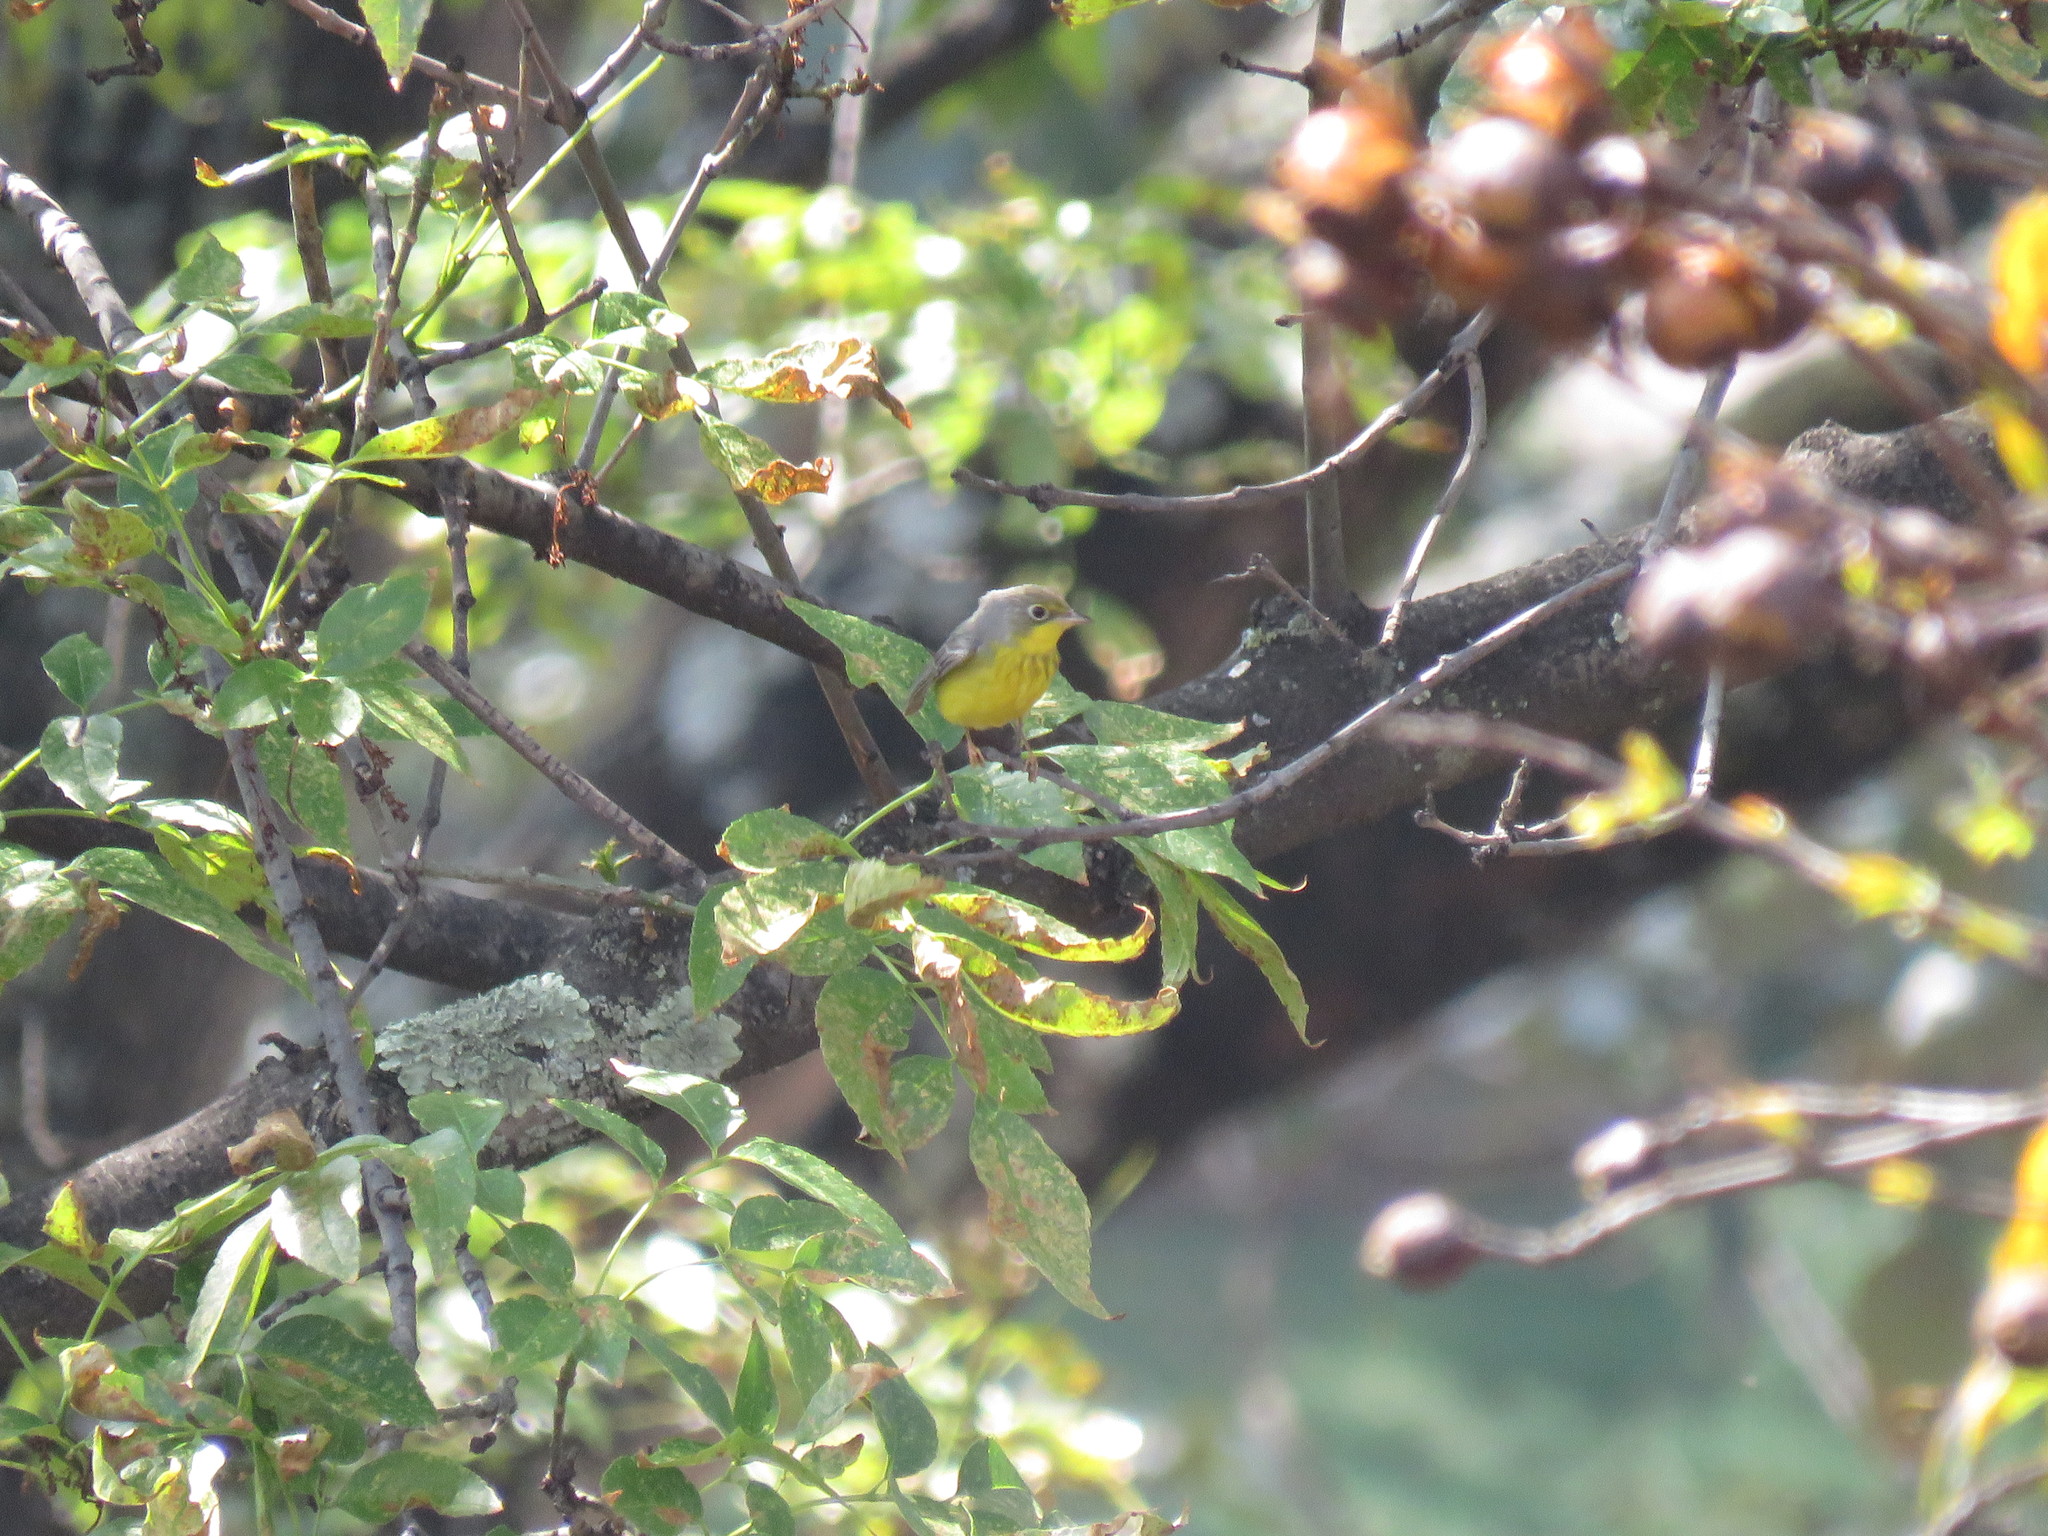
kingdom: Animalia
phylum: Chordata
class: Aves
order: Passeriformes
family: Parulidae
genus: Cardellina
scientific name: Cardellina canadensis
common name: Canada warbler
